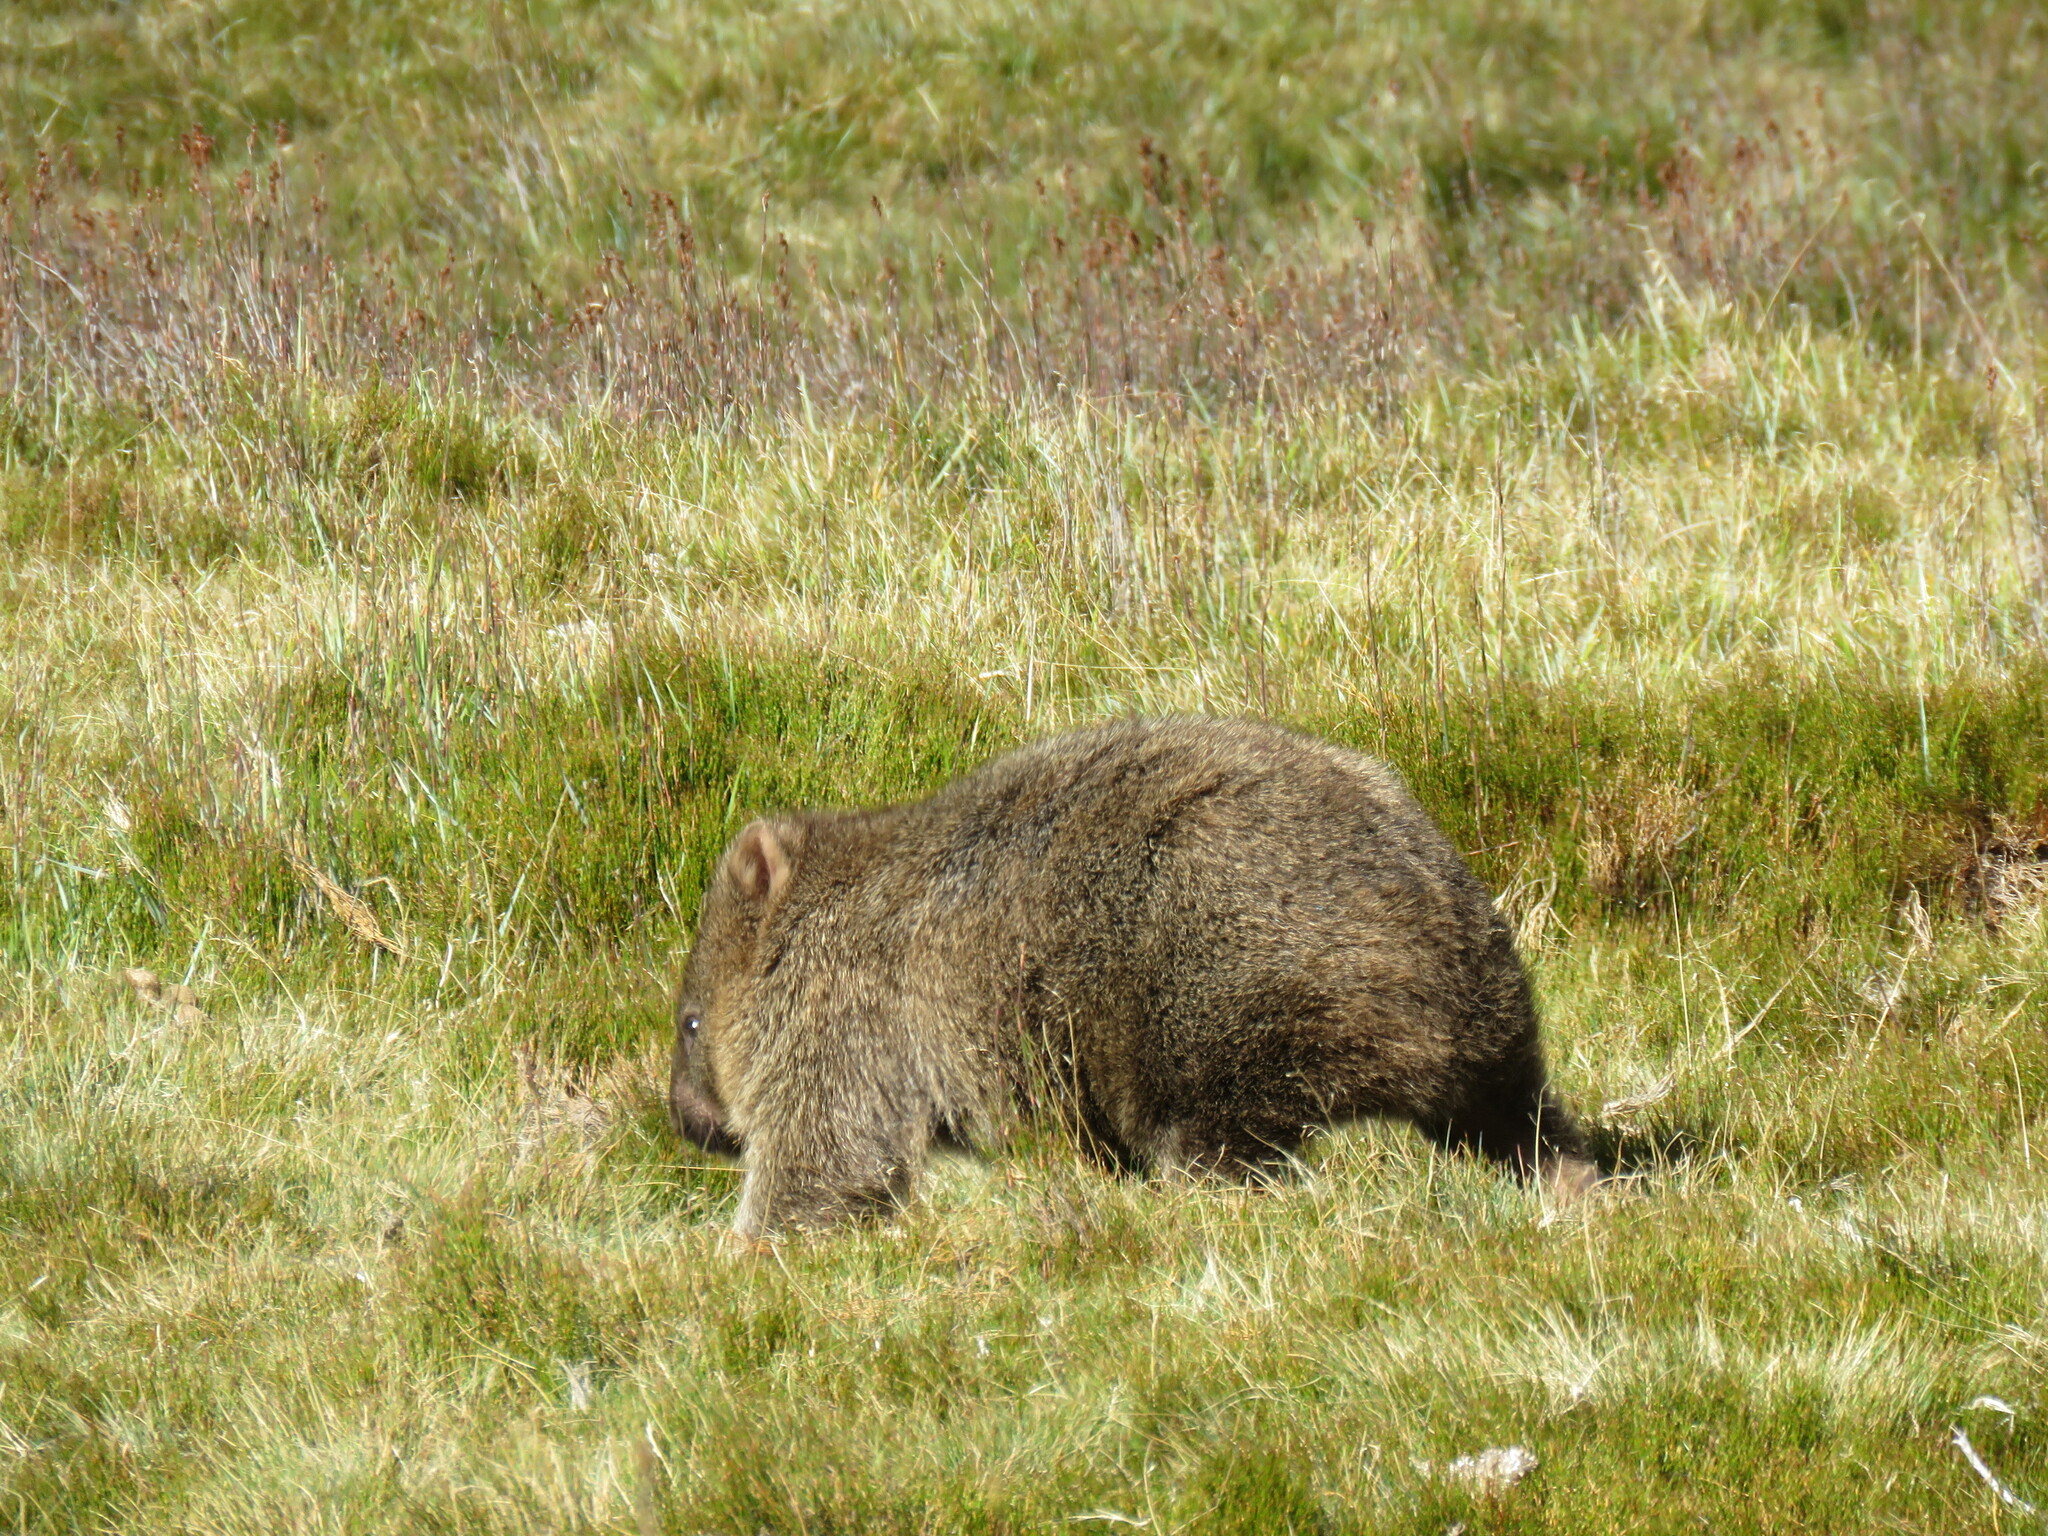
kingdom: Animalia
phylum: Chordata
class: Mammalia
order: Diprotodontia
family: Vombatidae
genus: Vombatus
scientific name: Vombatus ursinus
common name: Common wombat
